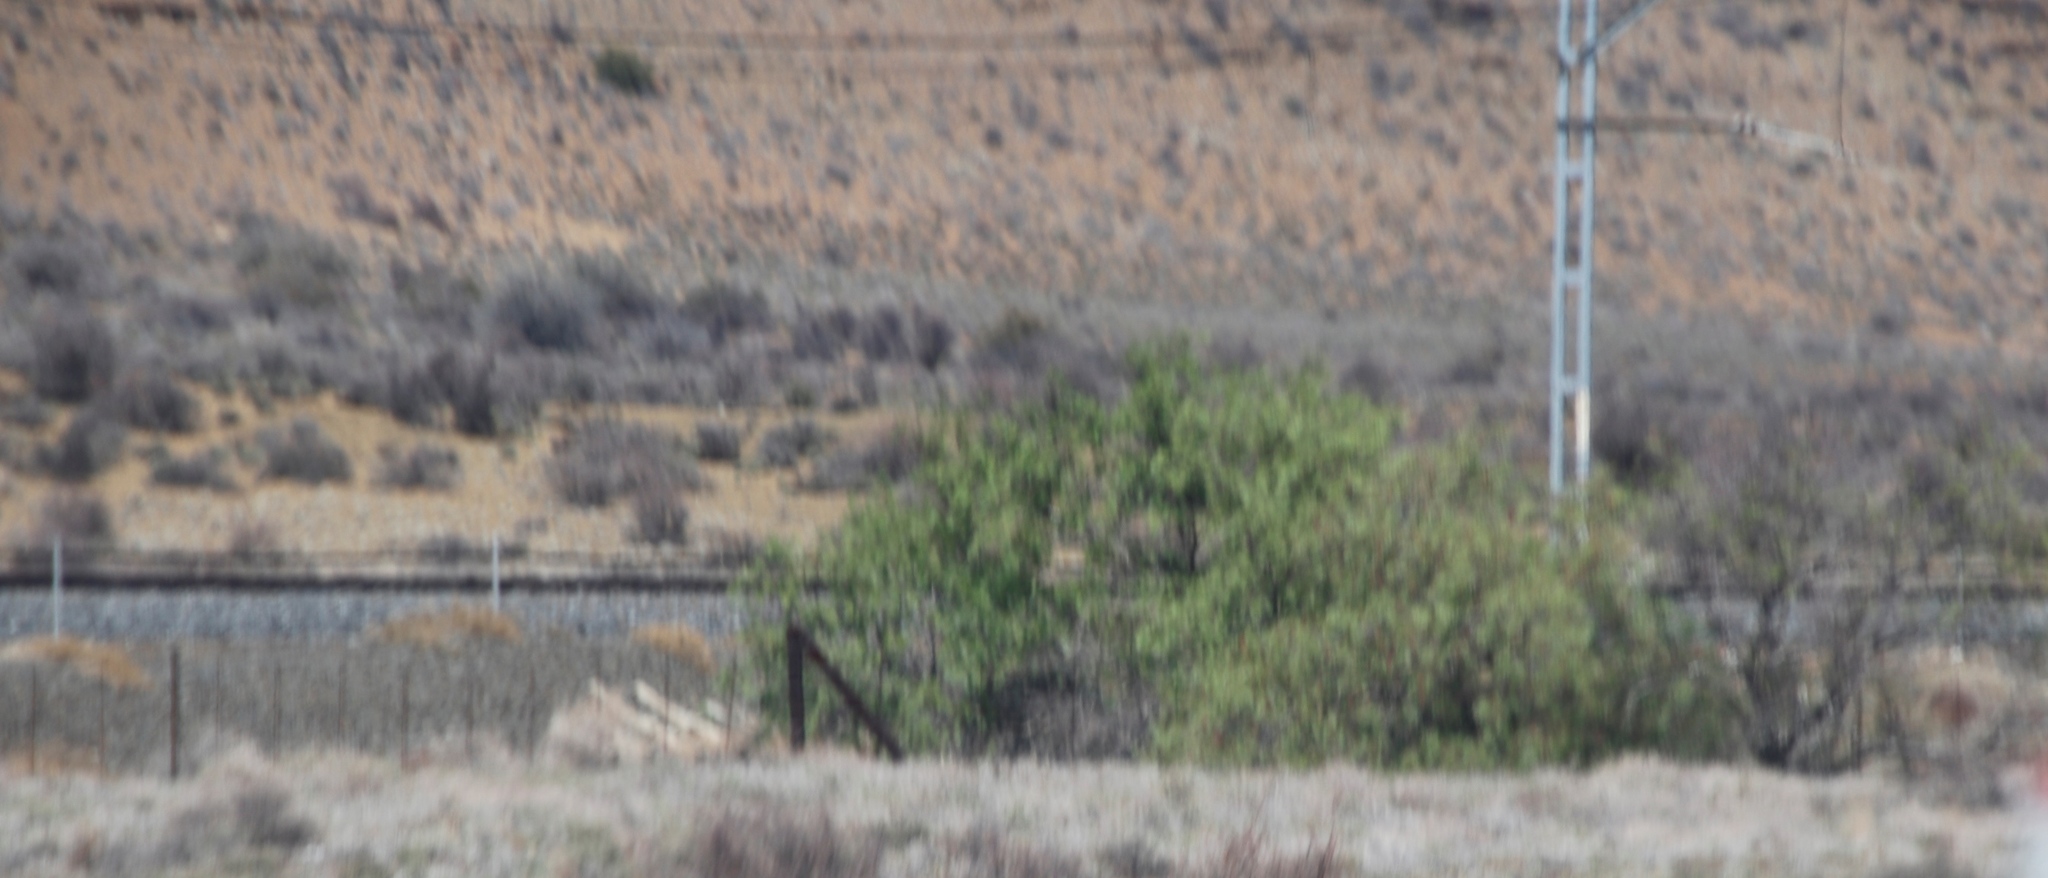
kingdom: Plantae
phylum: Tracheophyta
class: Magnoliopsida
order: Fabales
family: Fabaceae
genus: Vachellia
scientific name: Vachellia karroo
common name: Sweet thorn
